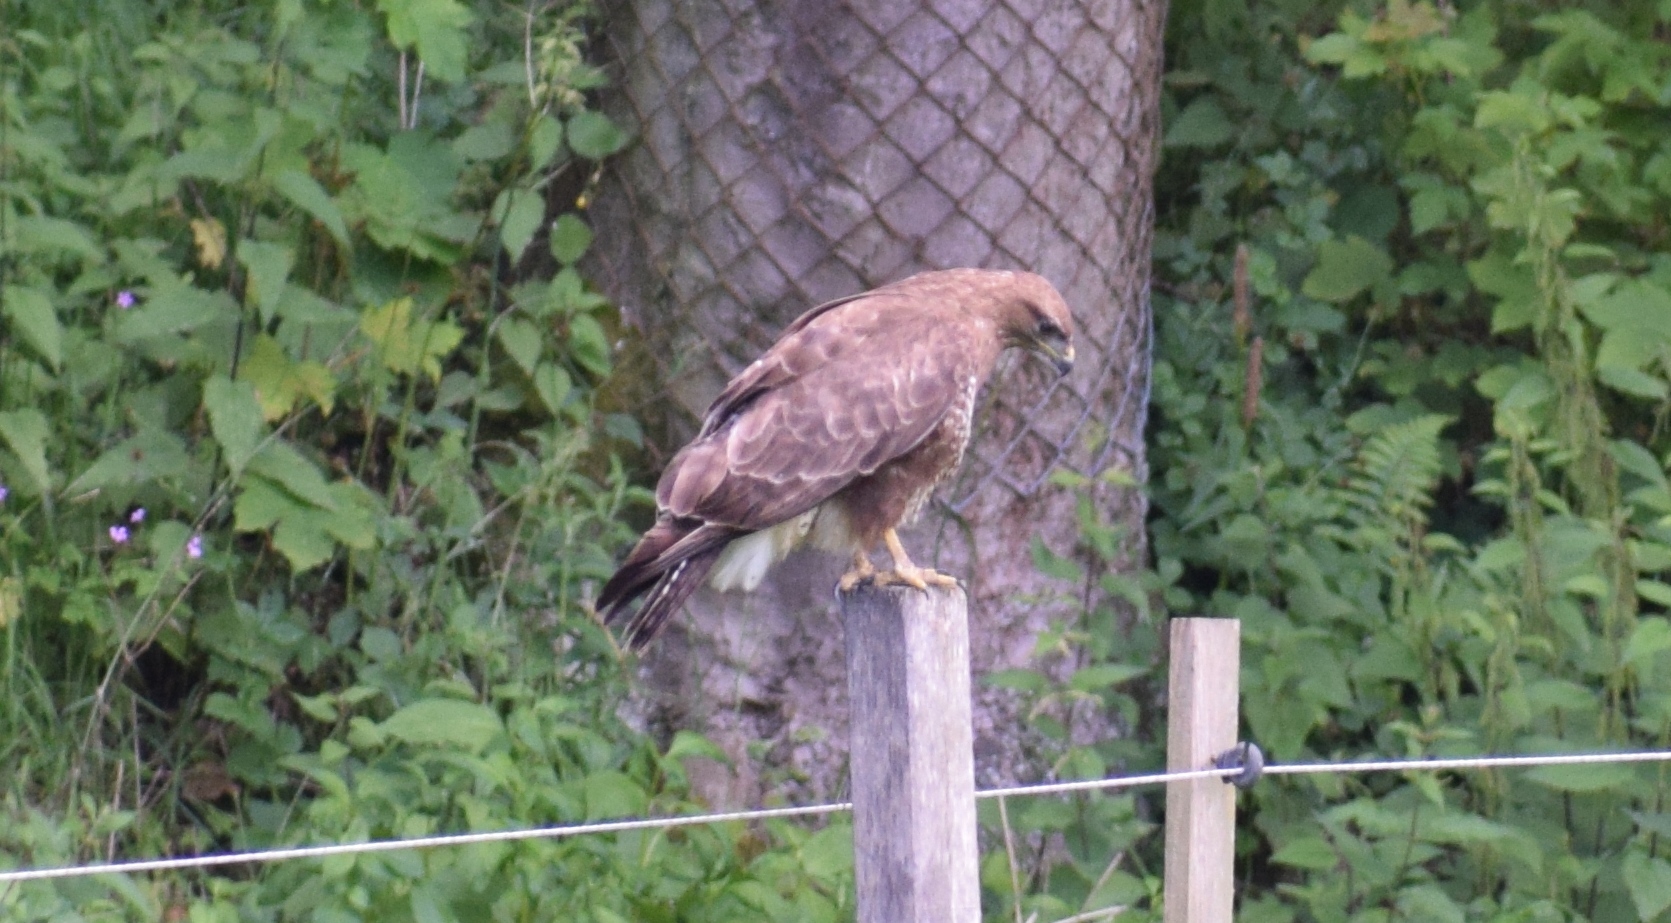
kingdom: Animalia
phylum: Chordata
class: Aves
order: Accipitriformes
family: Accipitridae
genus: Buteo
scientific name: Buteo buteo
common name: Common buzzard
